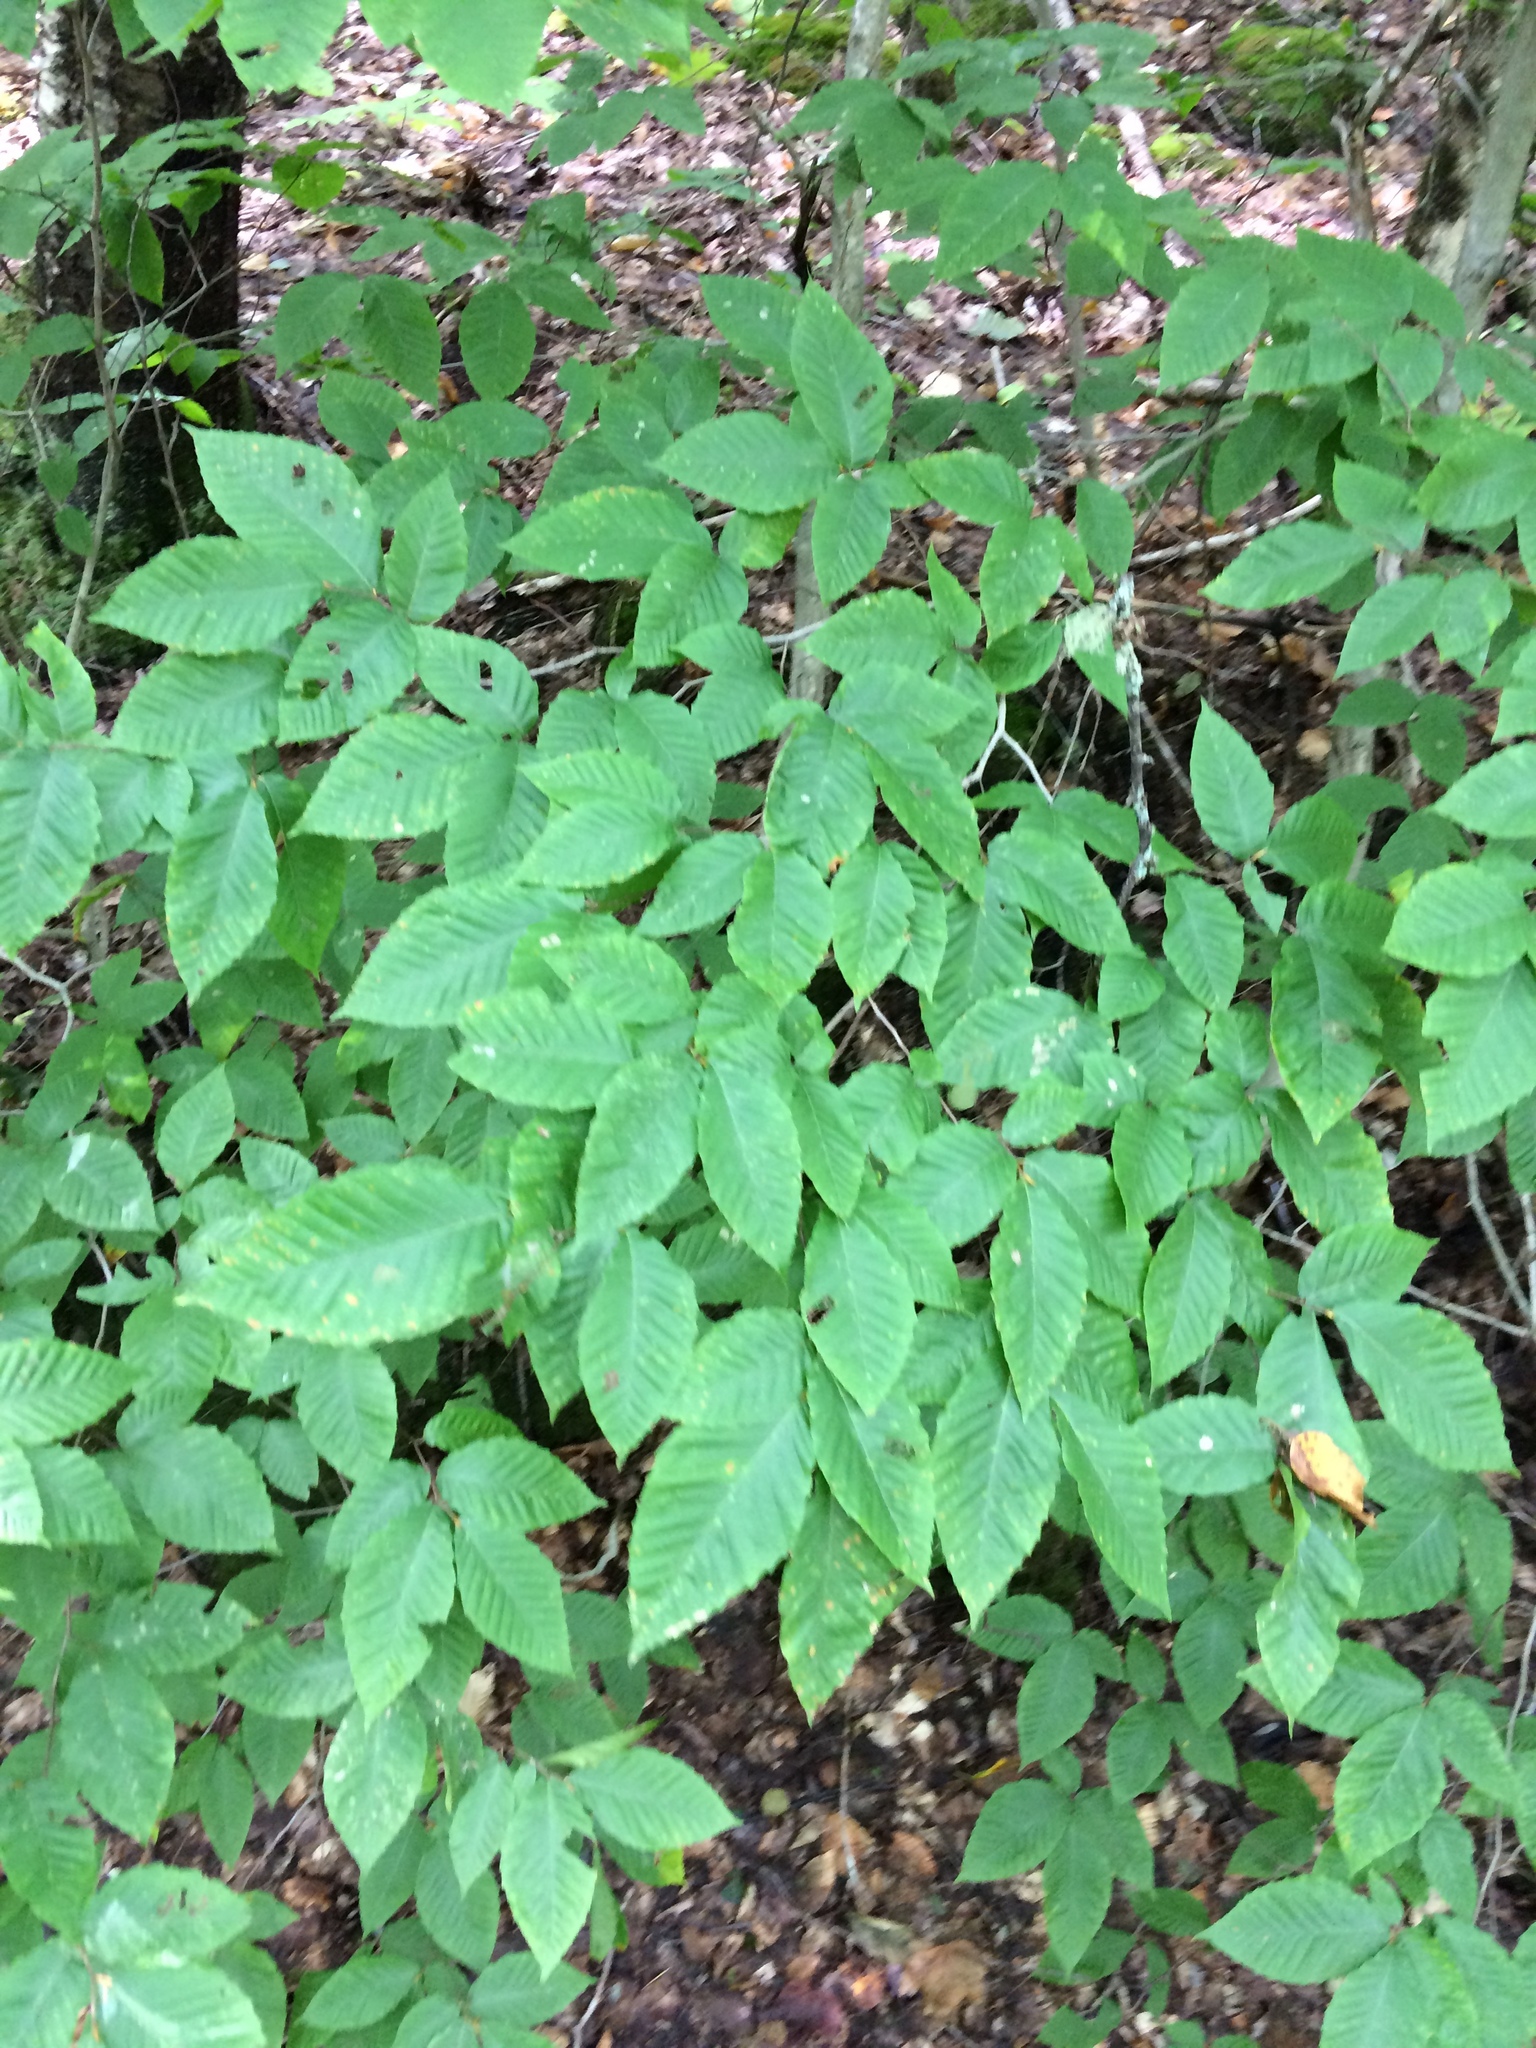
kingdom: Plantae
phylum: Tracheophyta
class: Magnoliopsida
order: Fagales
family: Fagaceae
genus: Fagus
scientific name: Fagus grandifolia
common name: American beech
